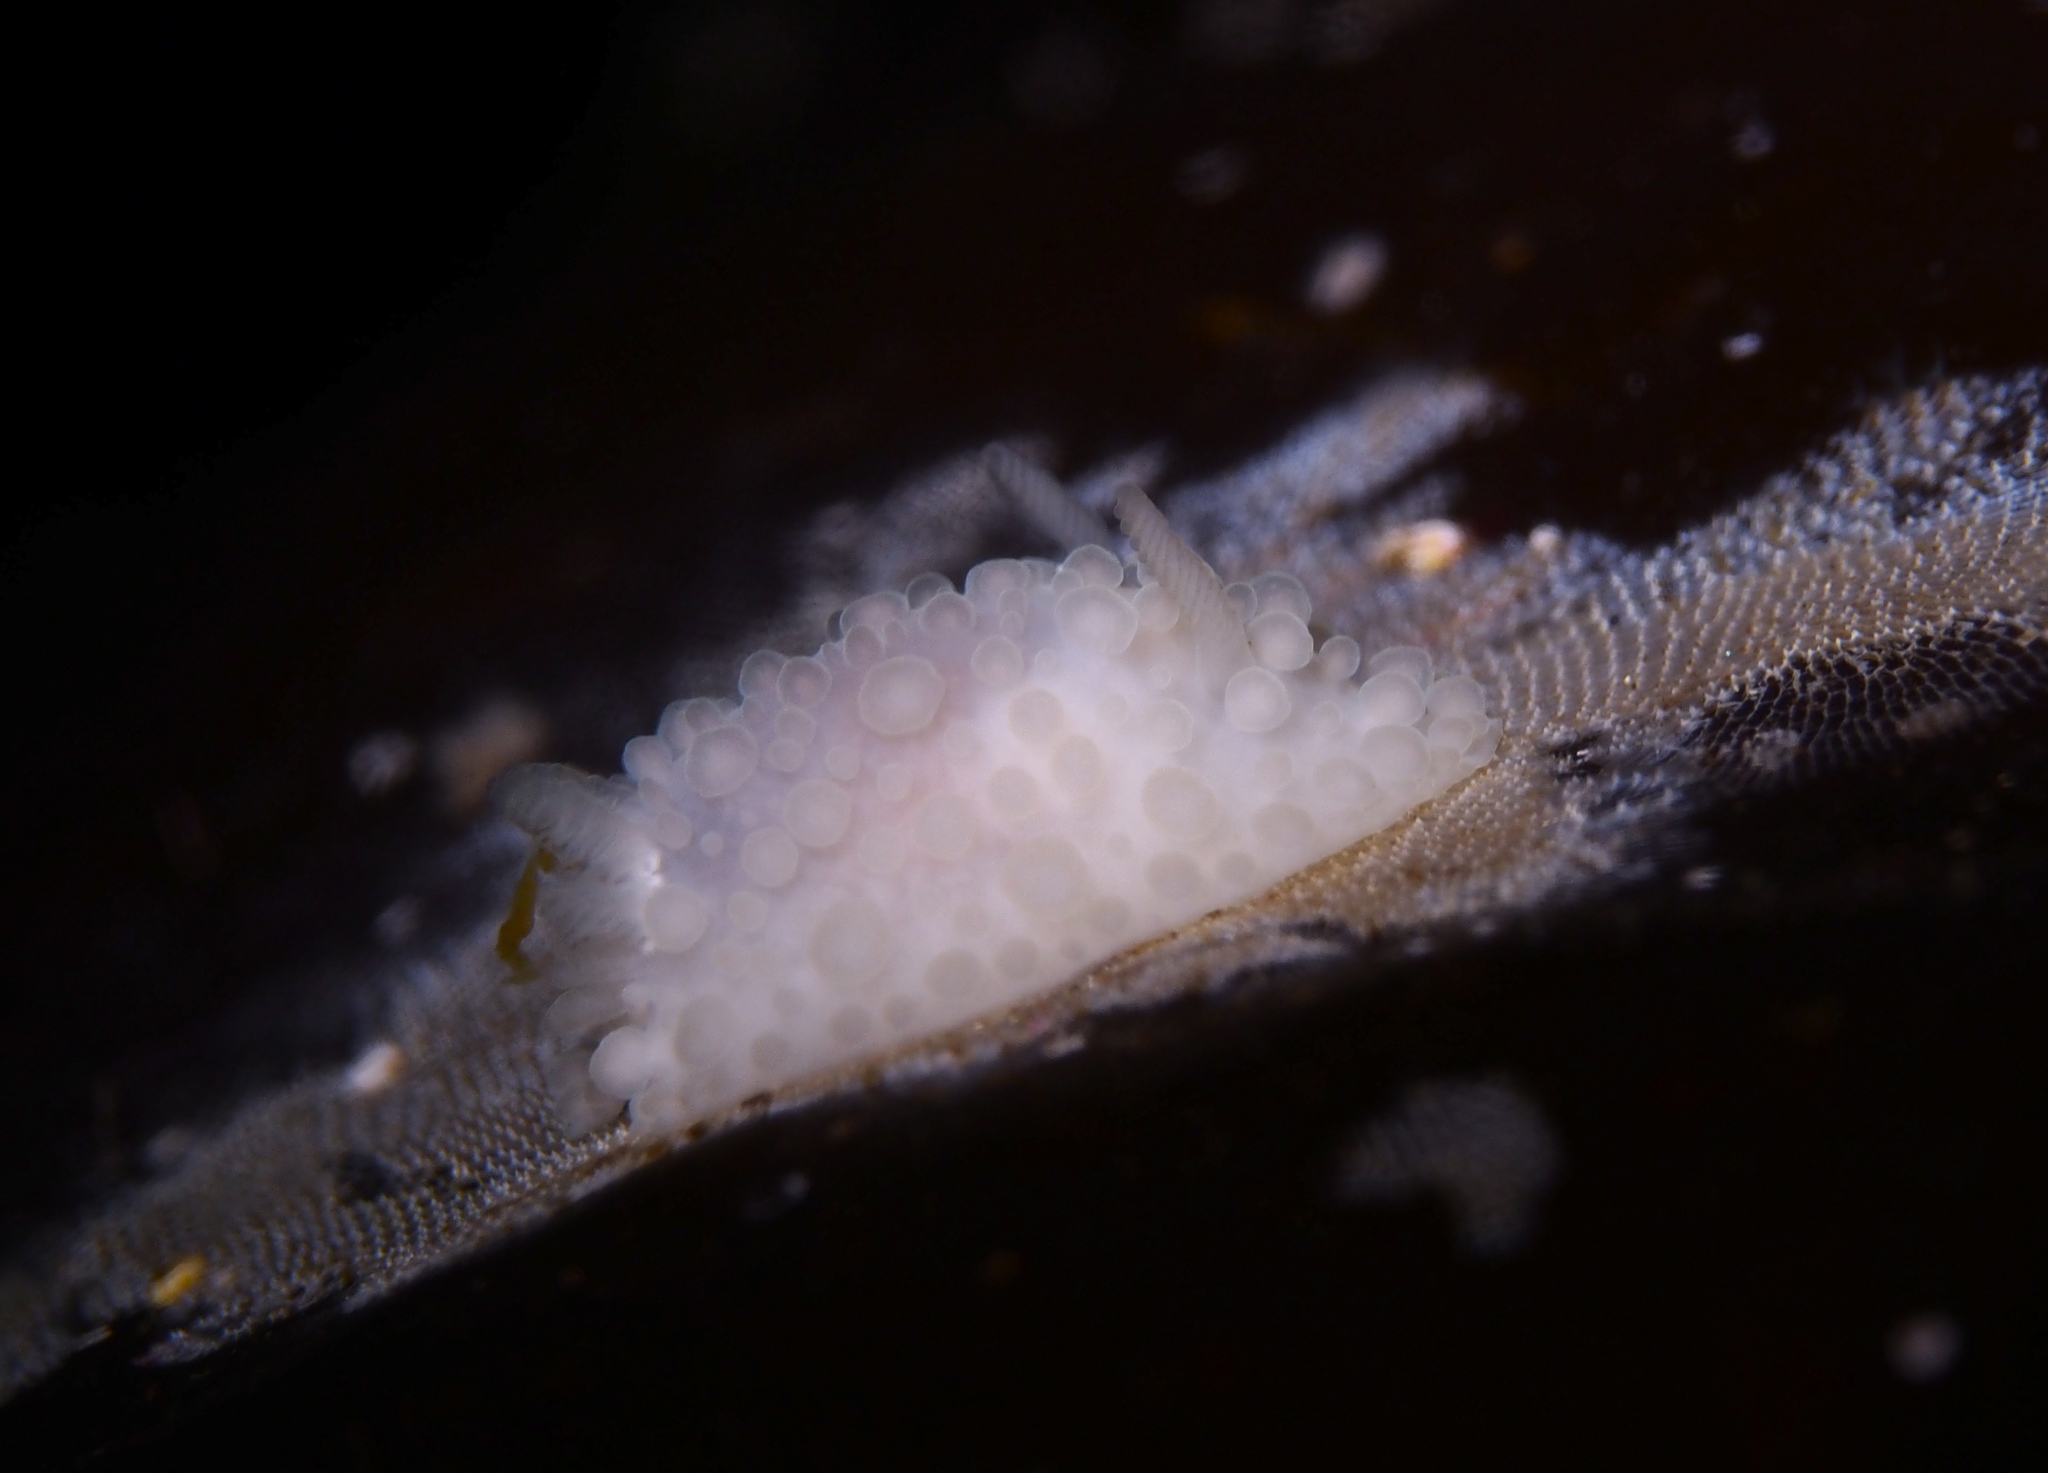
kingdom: Animalia
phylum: Mollusca
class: Gastropoda
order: Nudibranchia
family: Onchidorididae
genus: Adalaria
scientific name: Adalaria loveni
